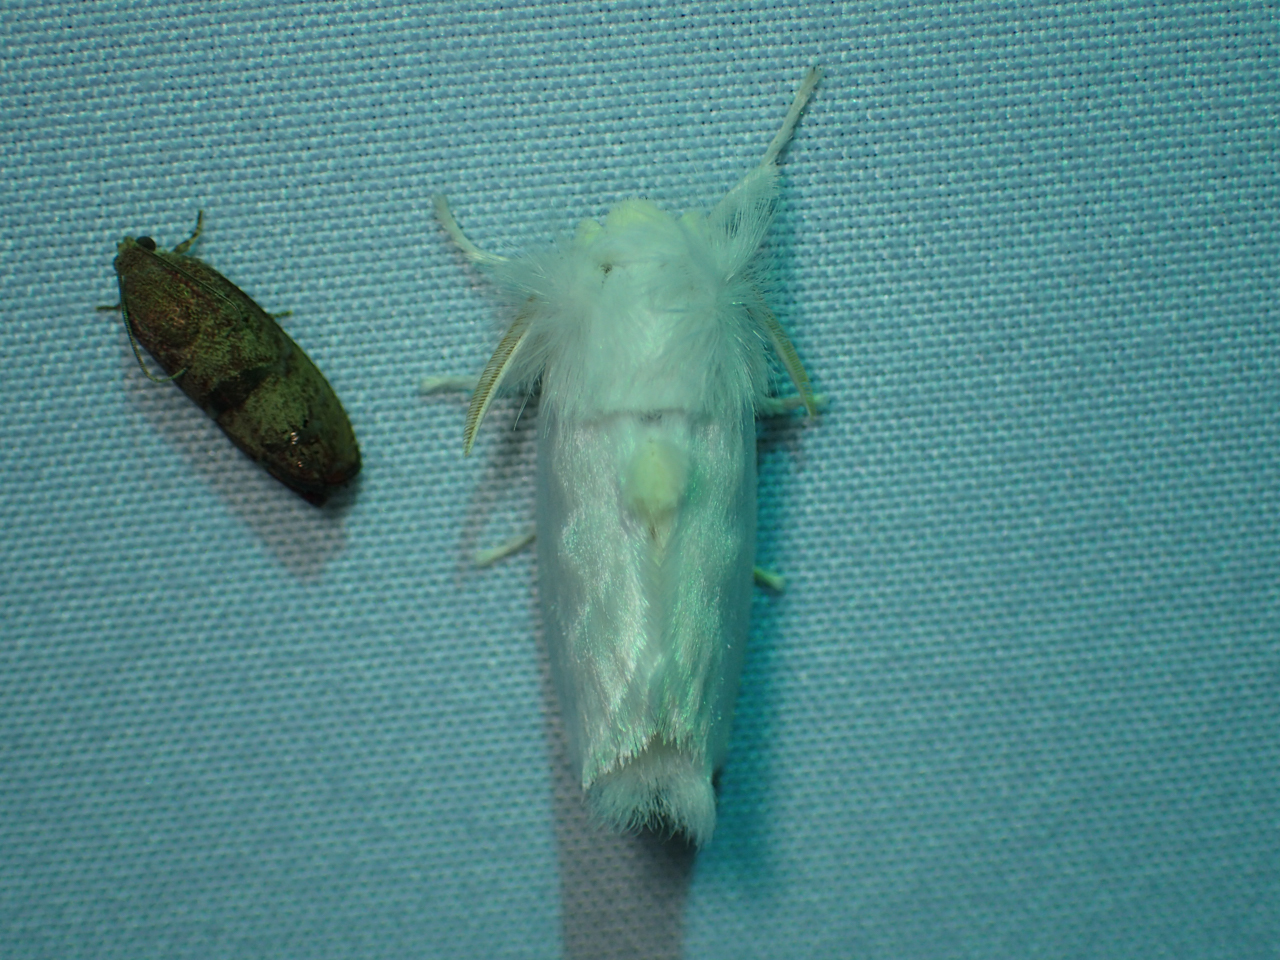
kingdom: Animalia
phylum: Arthropoda
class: Insecta
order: Lepidoptera
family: Megalopygidae
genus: Norape
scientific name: Norape cretata
